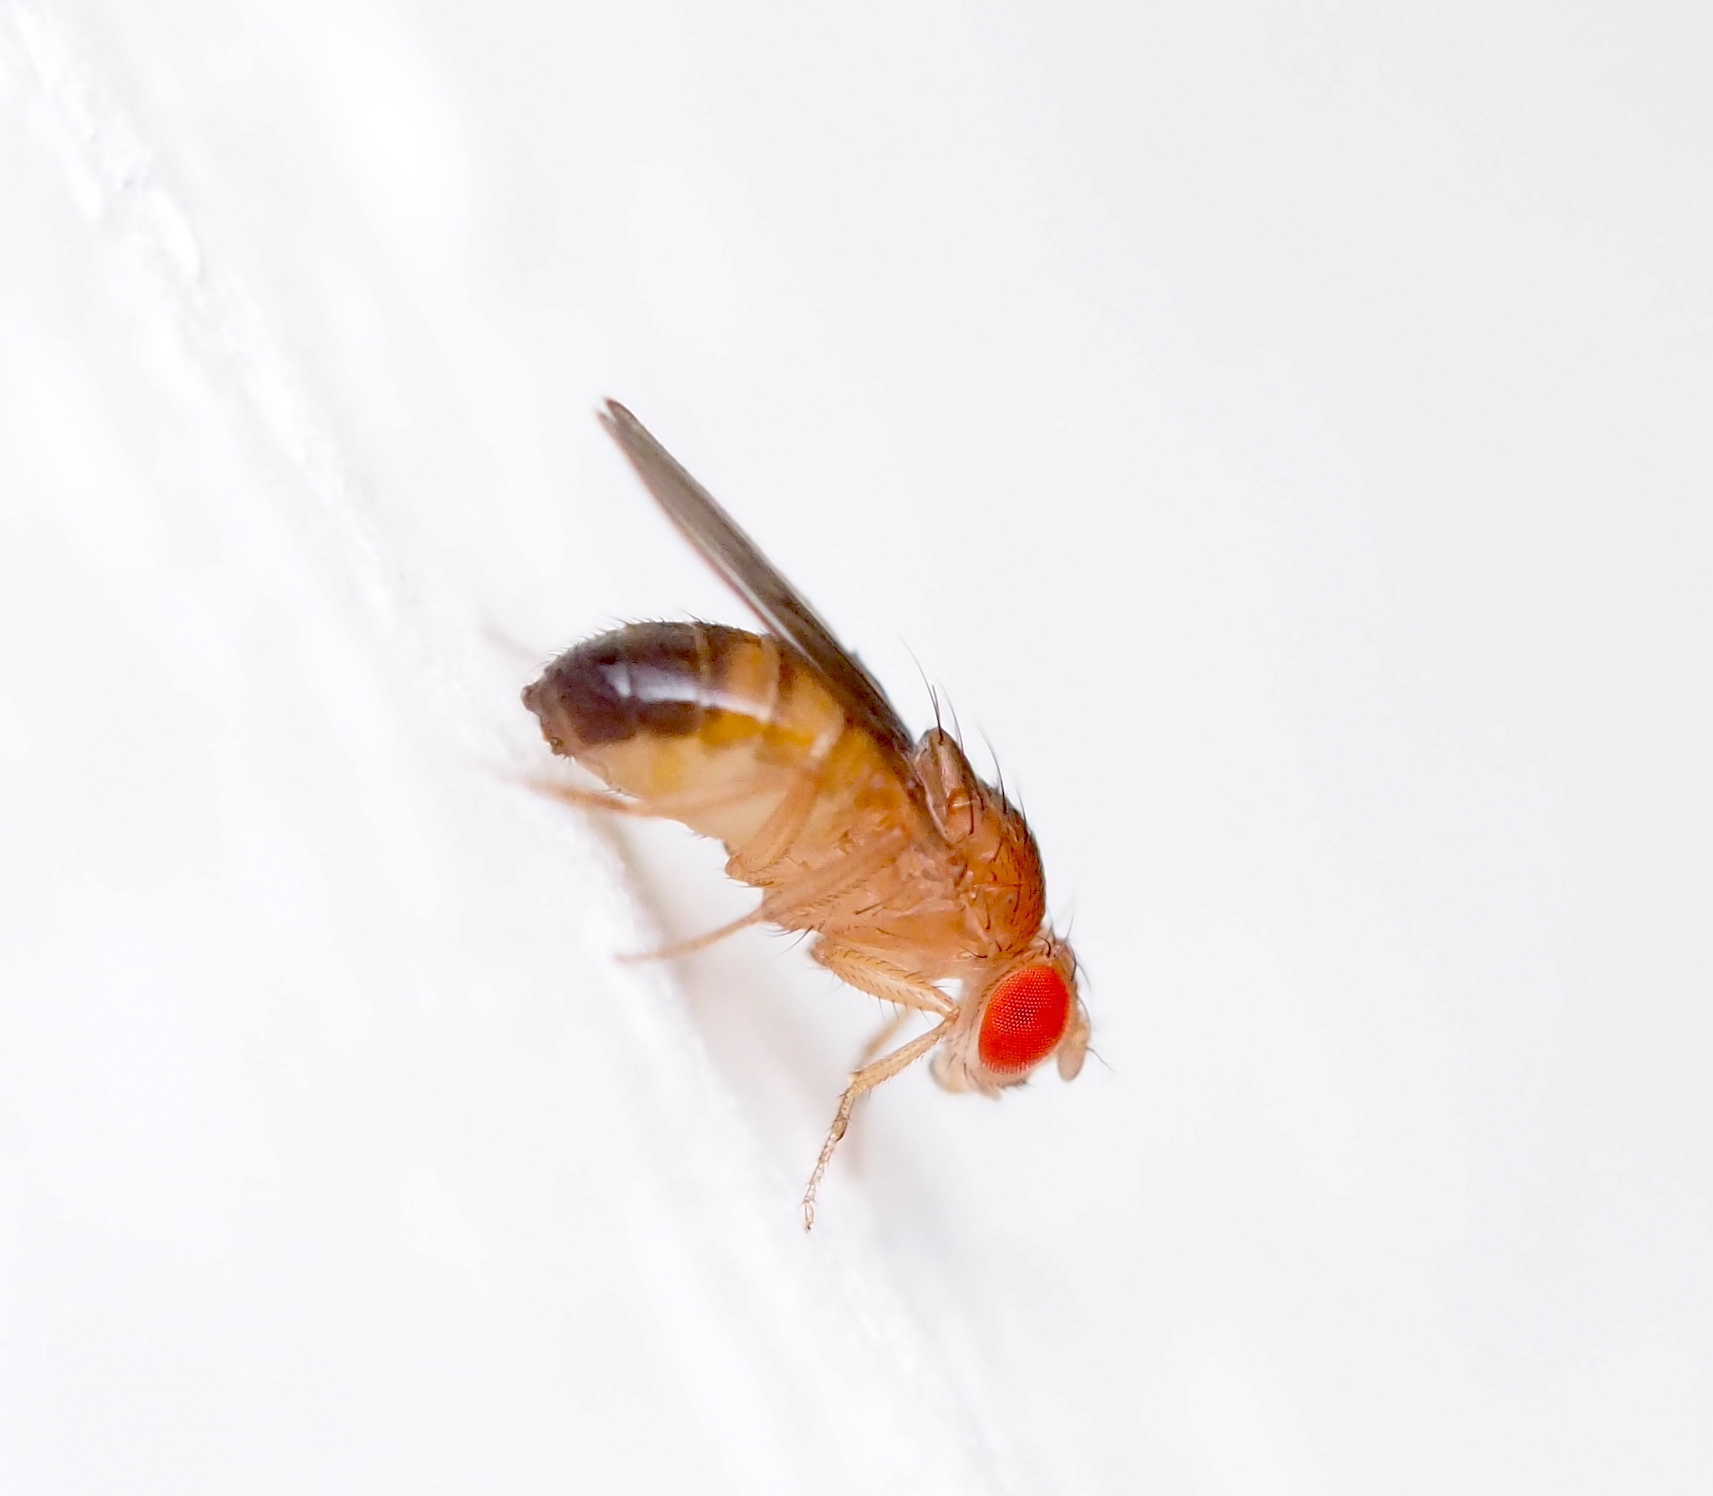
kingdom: Animalia
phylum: Arthropoda
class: Insecta
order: Diptera
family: Drosophilidae
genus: Drosophila
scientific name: Drosophila melanogaster
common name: Pomace fly
